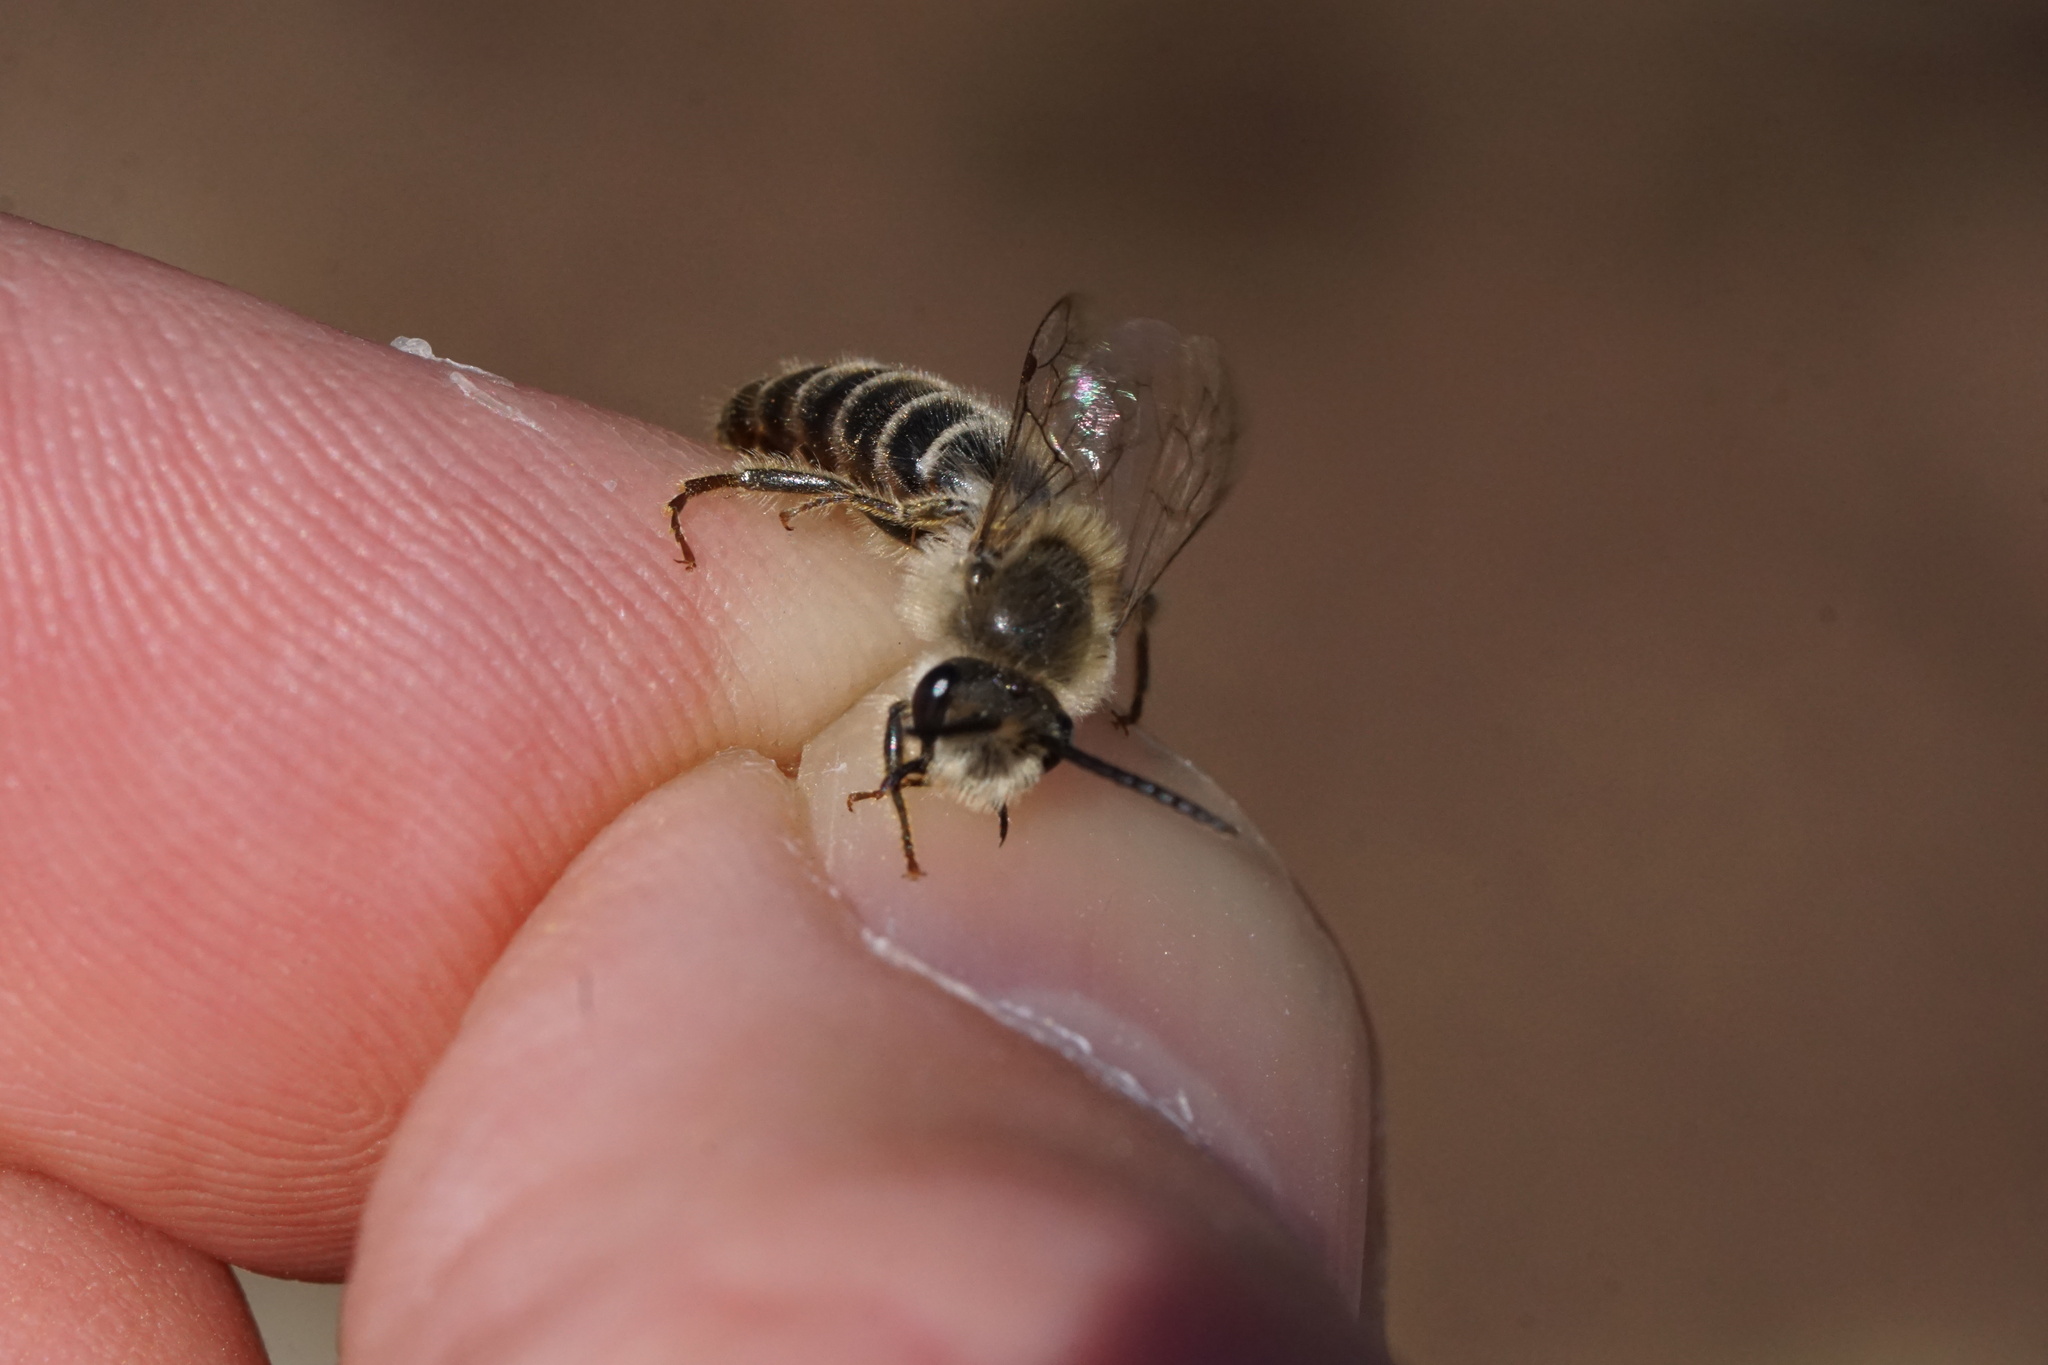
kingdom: Animalia
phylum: Arthropoda
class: Insecta
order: Hymenoptera
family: Colletidae
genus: Colletes
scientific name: Colletes inaequalis
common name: Unequal cellophane bee
